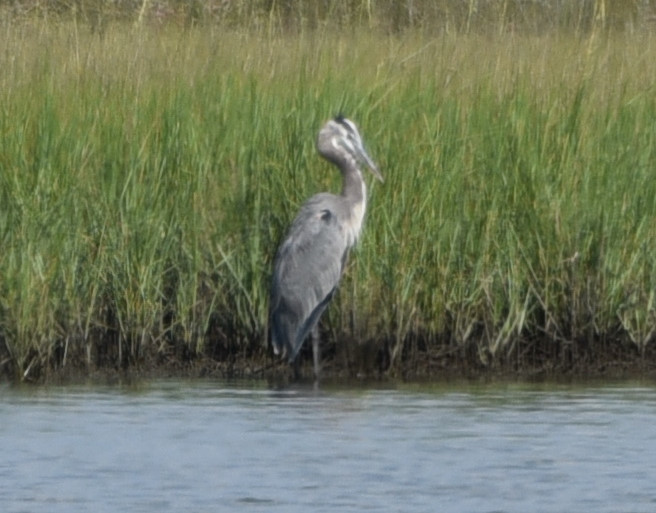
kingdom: Animalia
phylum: Chordata
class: Aves
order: Pelecaniformes
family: Ardeidae
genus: Ardea
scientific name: Ardea herodias
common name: Great blue heron
